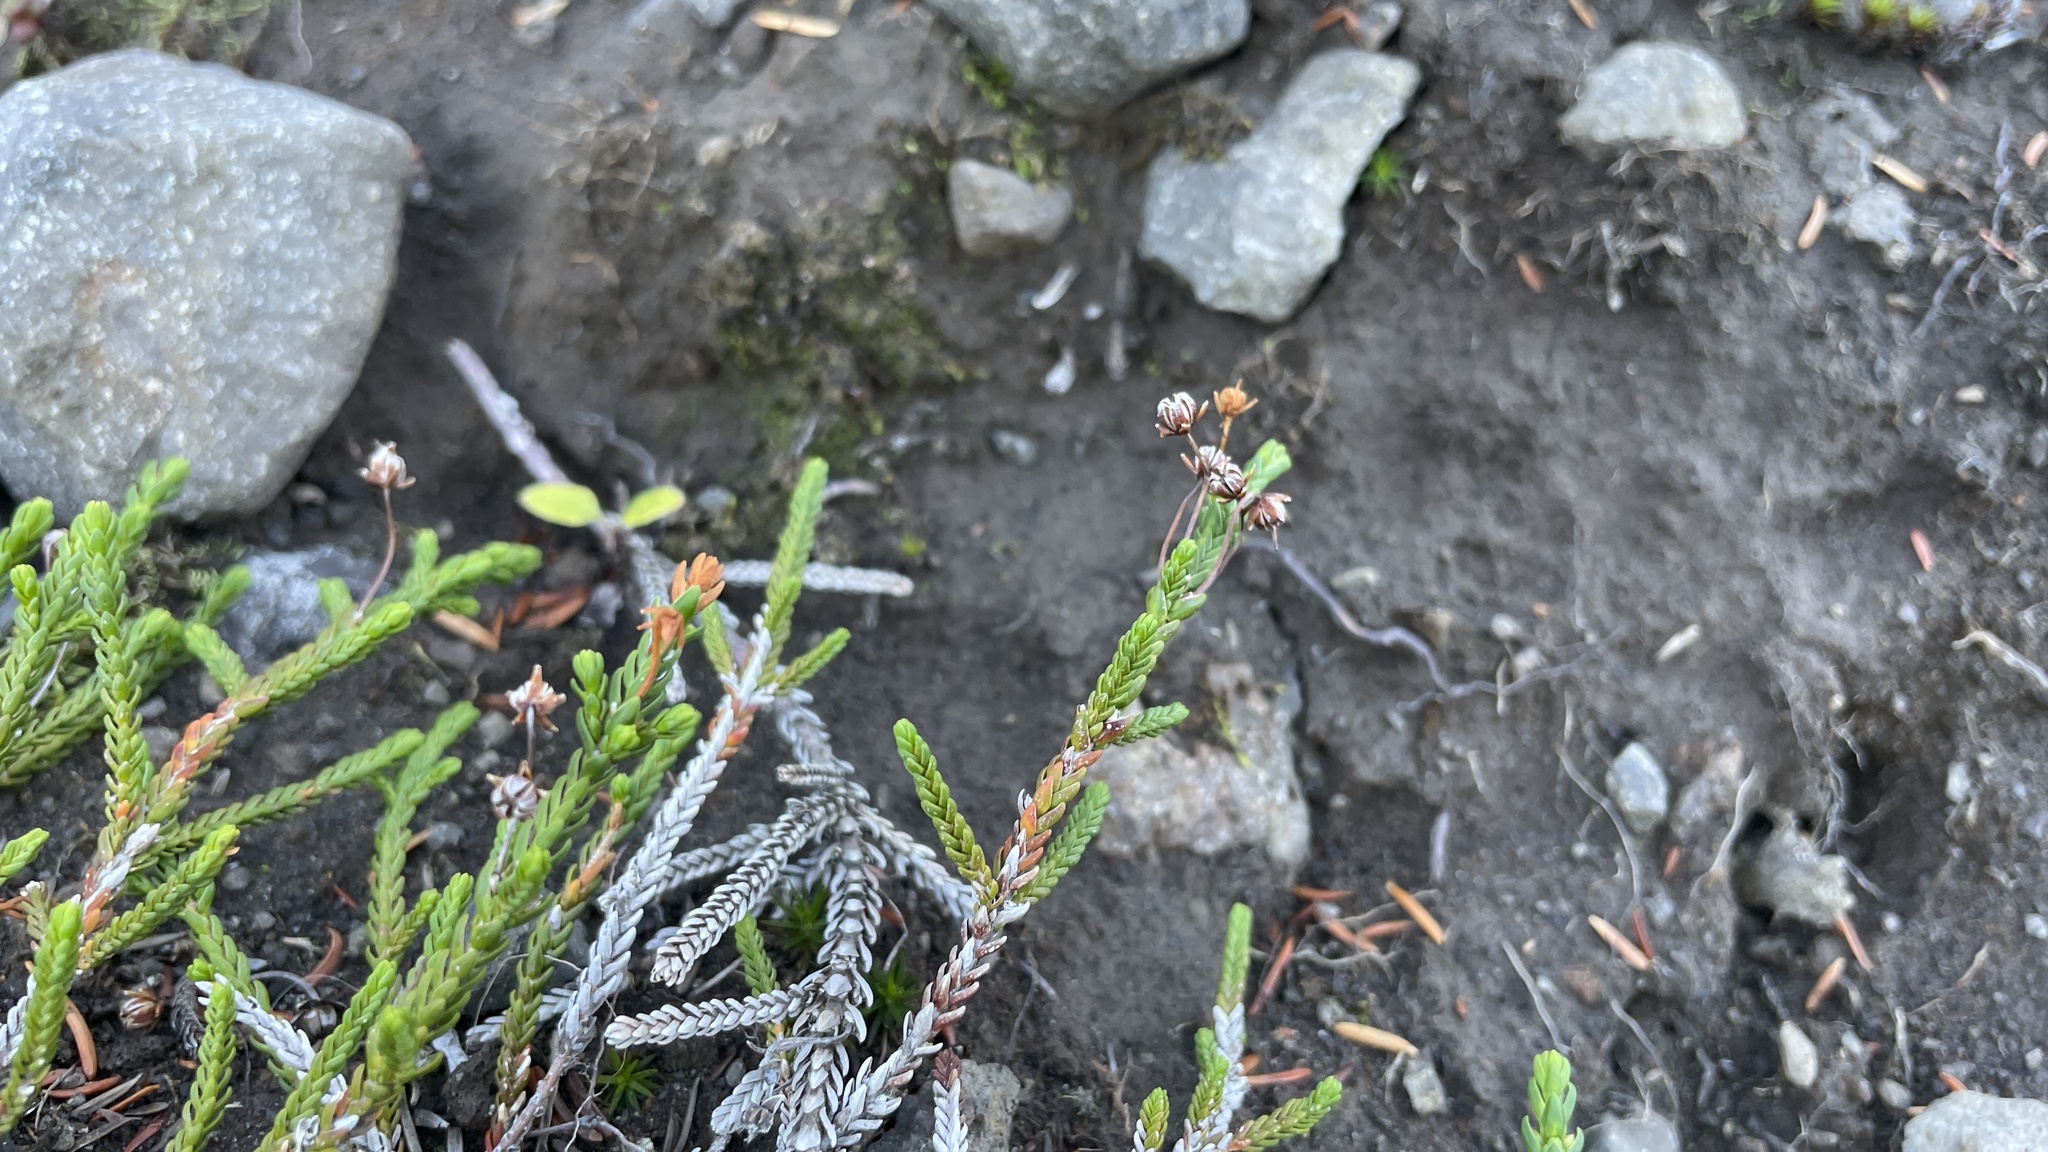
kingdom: Plantae
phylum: Tracheophyta
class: Magnoliopsida
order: Ericales
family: Ericaceae
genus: Cassiope
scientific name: Cassiope mertensiana
